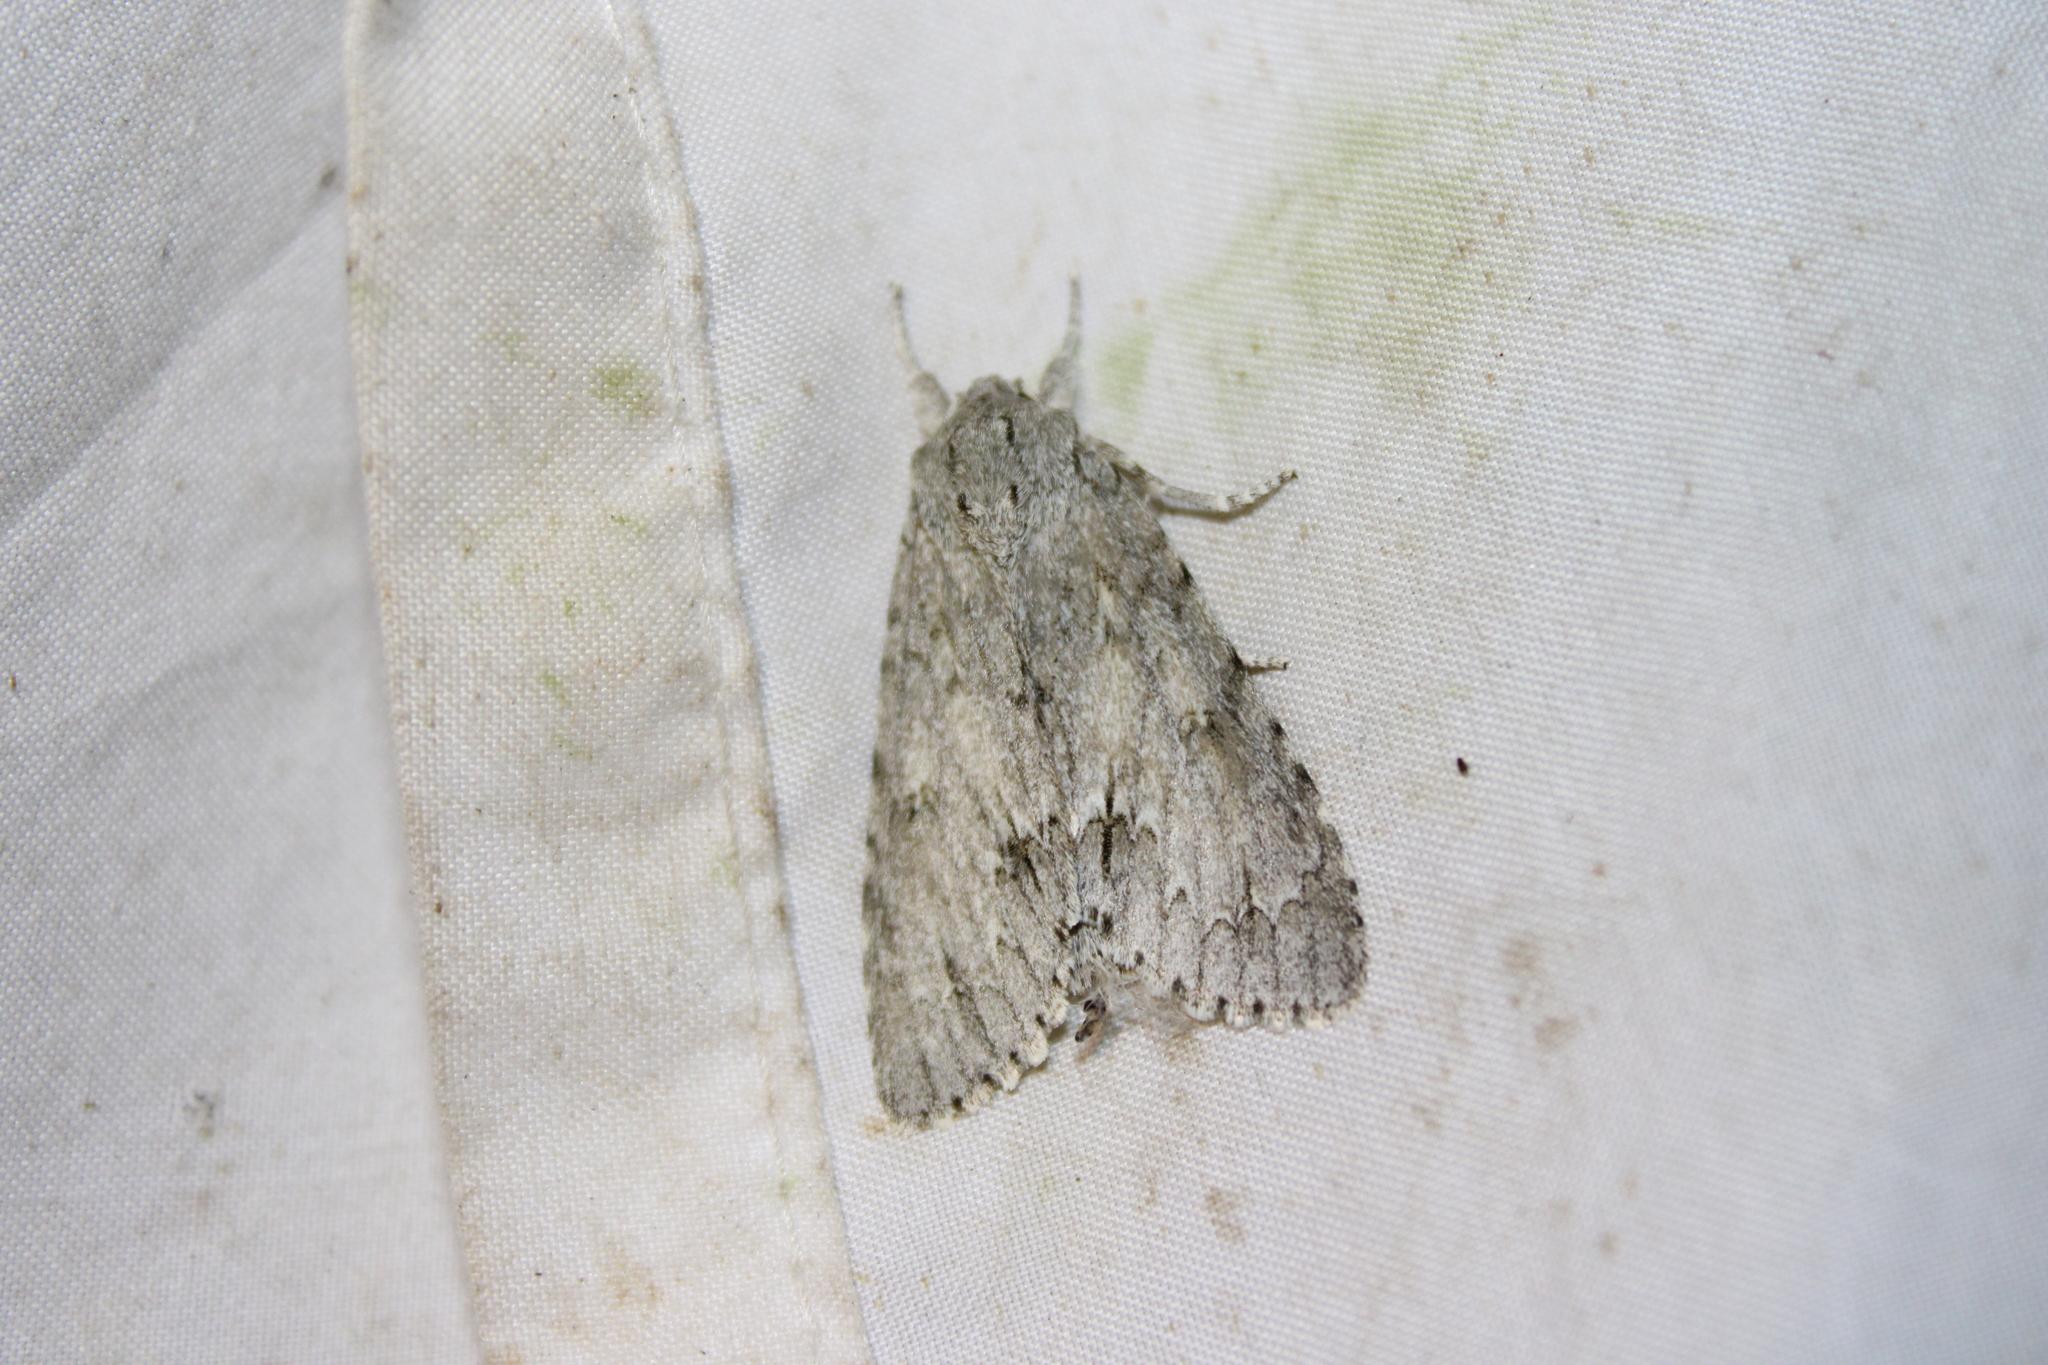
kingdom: Animalia
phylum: Arthropoda
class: Insecta
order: Lepidoptera
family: Noctuidae
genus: Acronicta
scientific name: Acronicta americana
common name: American dagger
